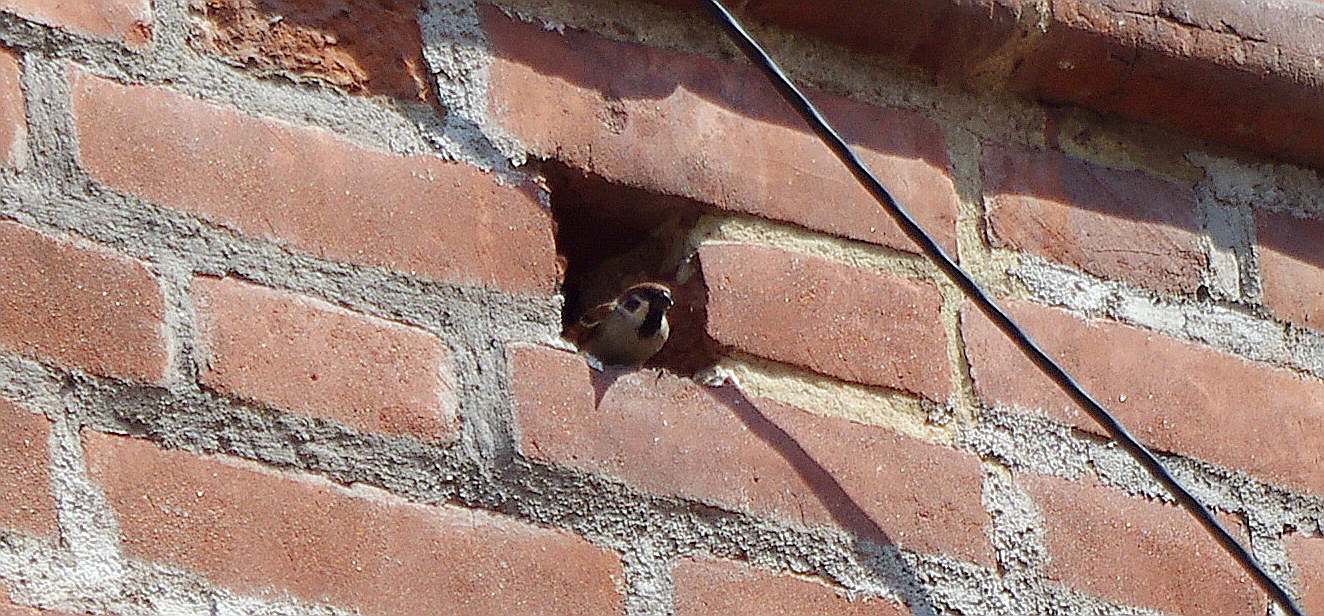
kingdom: Animalia
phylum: Chordata
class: Aves
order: Passeriformes
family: Passeridae
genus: Passer
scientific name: Passer montanus
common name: Eurasian tree sparrow
